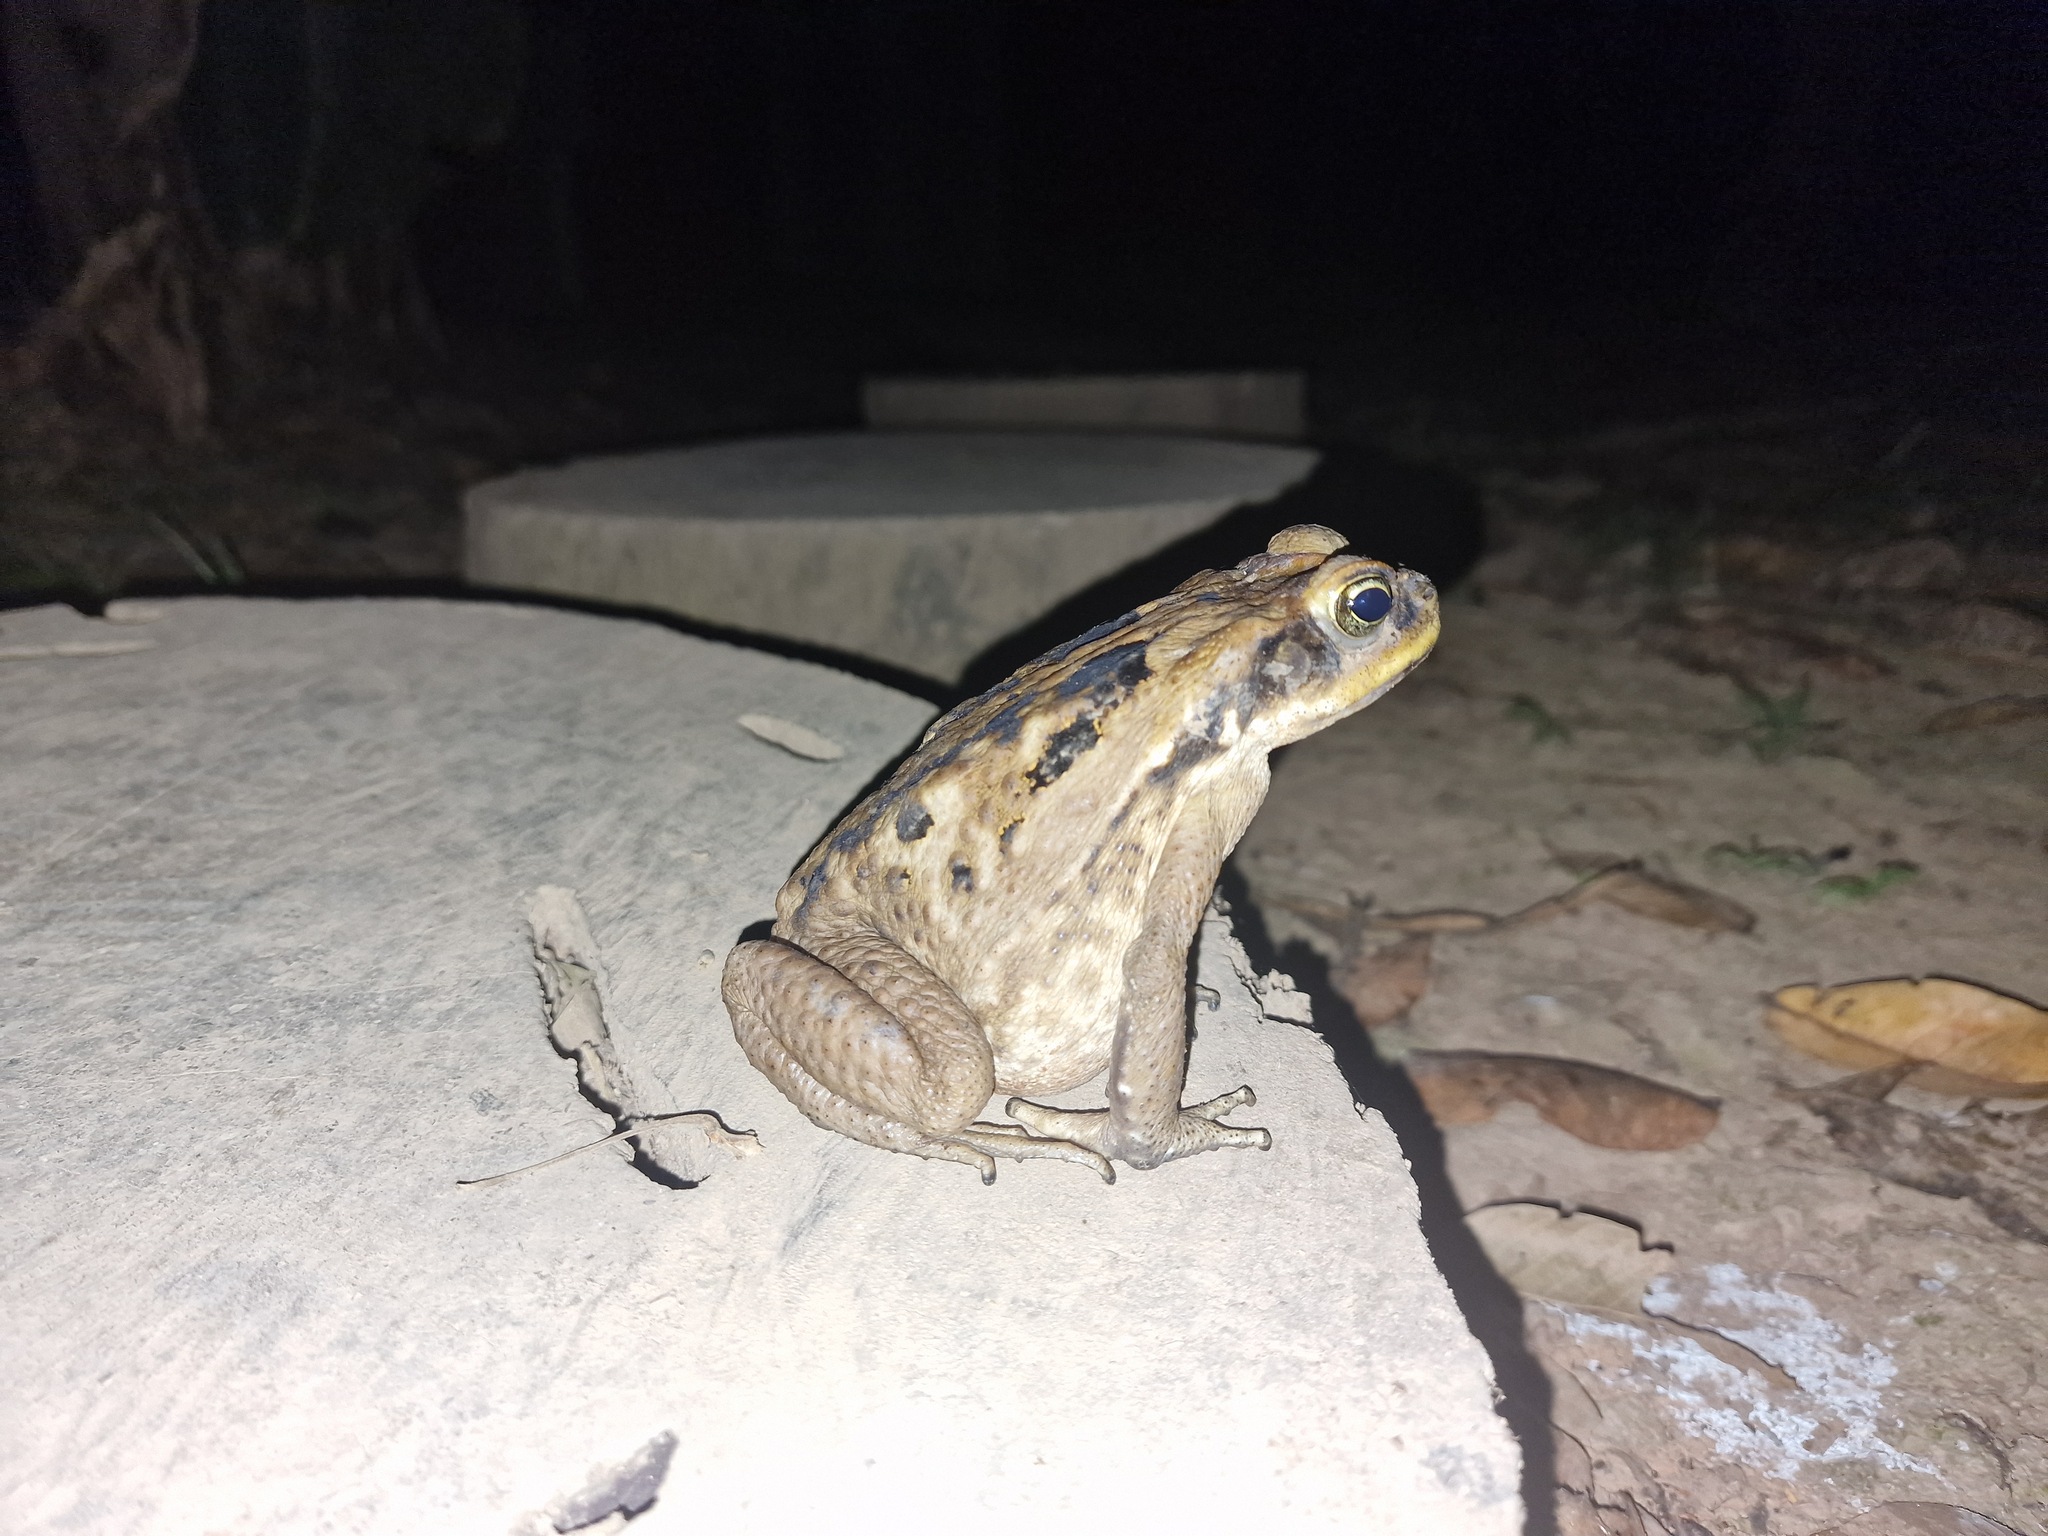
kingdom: Animalia
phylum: Chordata
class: Amphibia
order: Anura
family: Bufonidae
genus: Rhinella
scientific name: Rhinella marina
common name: Cane toad
